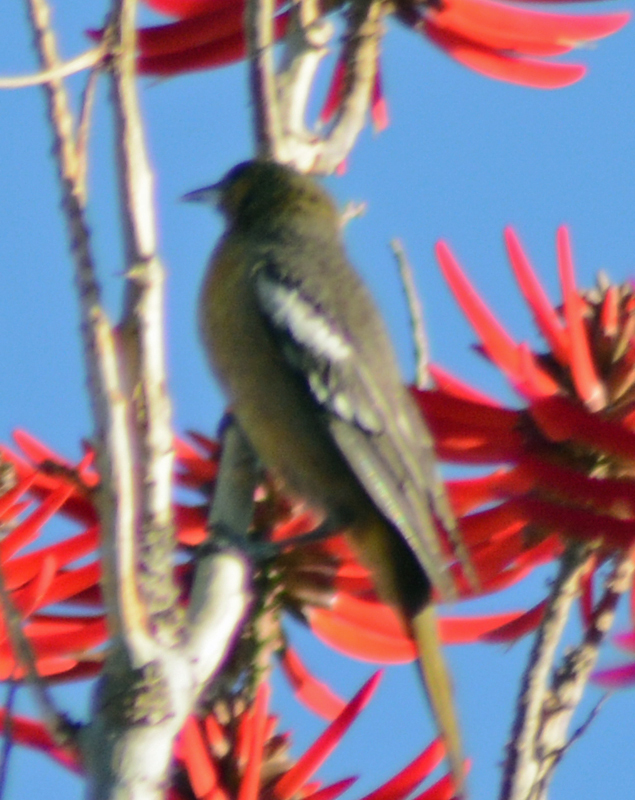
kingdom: Animalia
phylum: Chordata
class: Aves
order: Passeriformes
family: Icteridae
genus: Icterus
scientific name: Icterus abeillei
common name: Black-backed oriole
